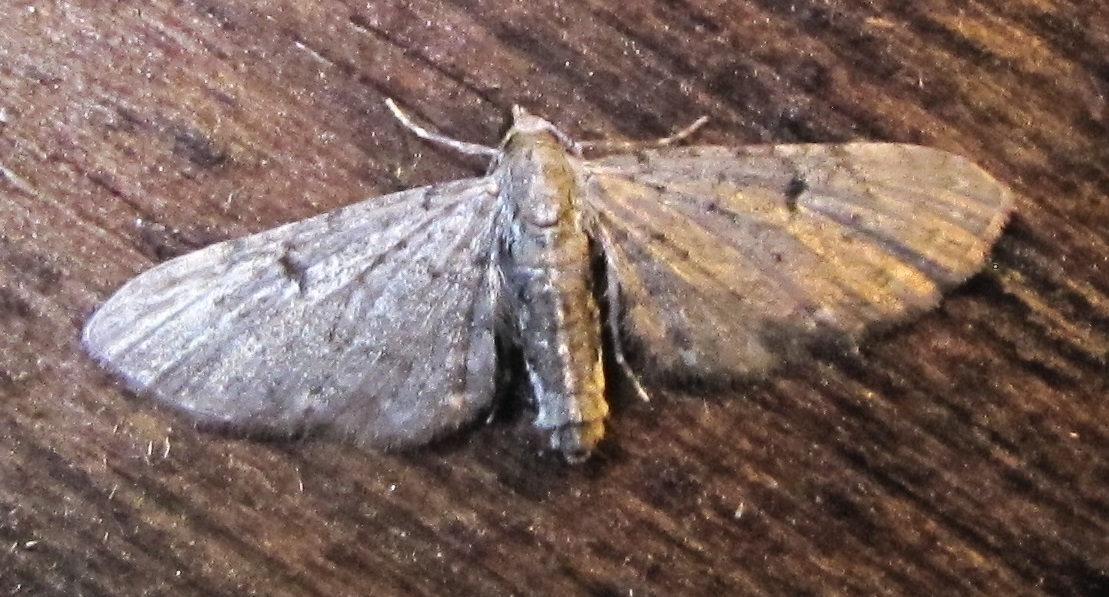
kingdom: Animalia
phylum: Arthropoda
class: Insecta
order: Lepidoptera
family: Geometridae
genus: Eupithecia
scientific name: Eupithecia miserulata
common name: Common eupithecia
